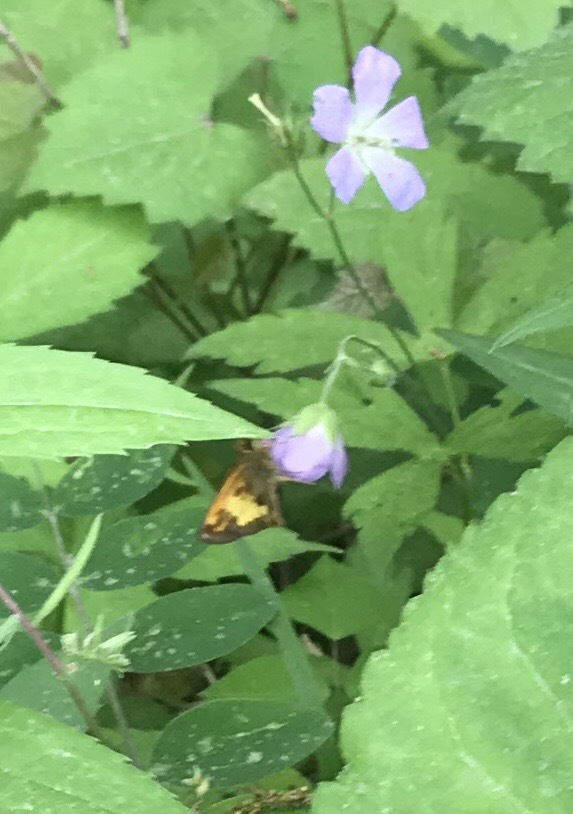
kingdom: Animalia
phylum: Arthropoda
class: Insecta
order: Lepidoptera
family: Hesperiidae
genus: Lon
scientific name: Lon hobomok
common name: Hobomok skipper
